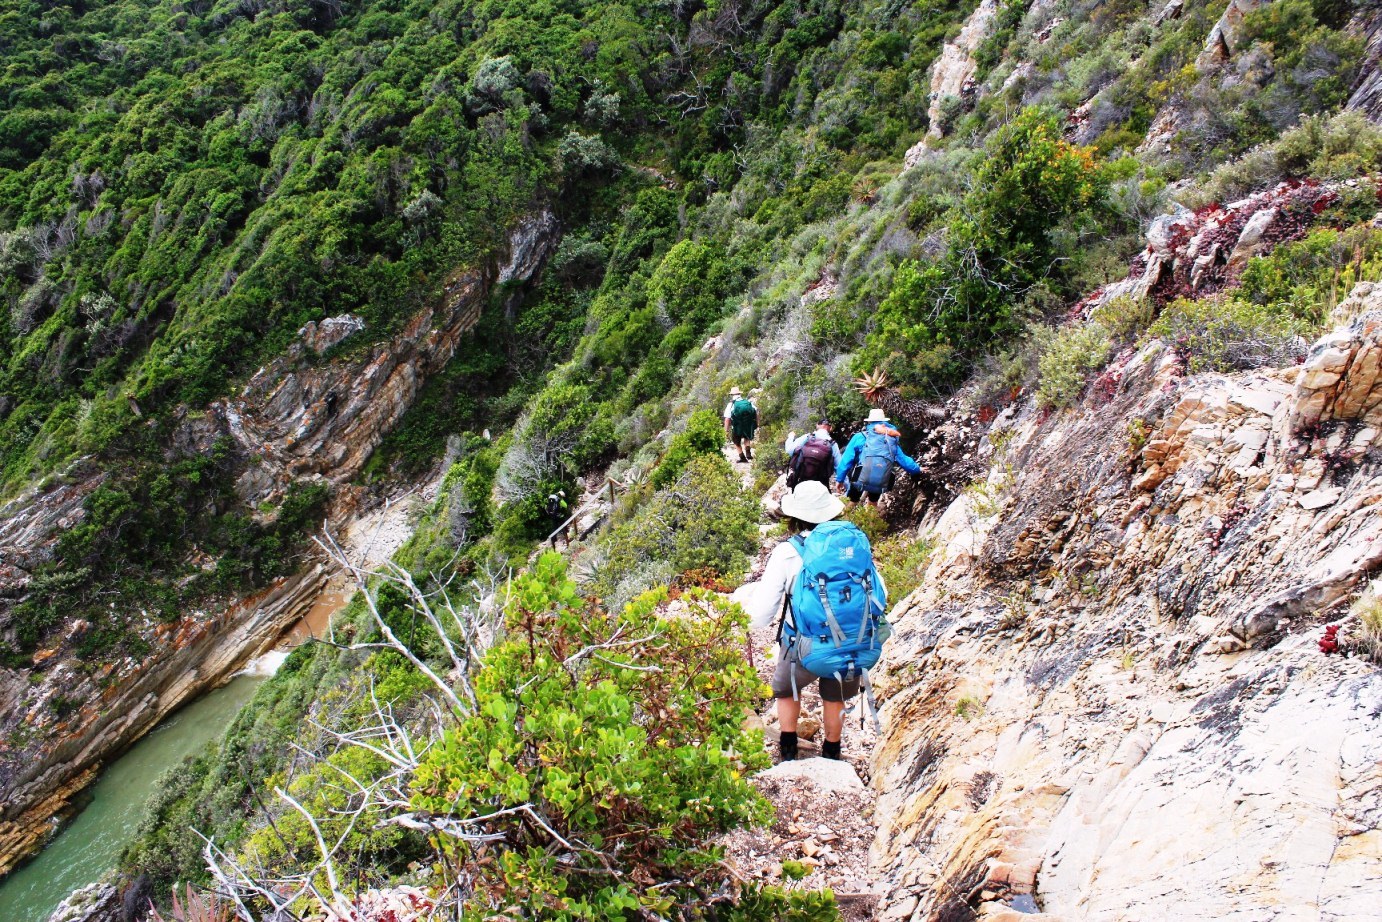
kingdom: Plantae
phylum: Tracheophyta
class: Magnoliopsida
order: Asterales
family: Asteraceae
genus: Osteospermum
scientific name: Osteospermum moniliferum
